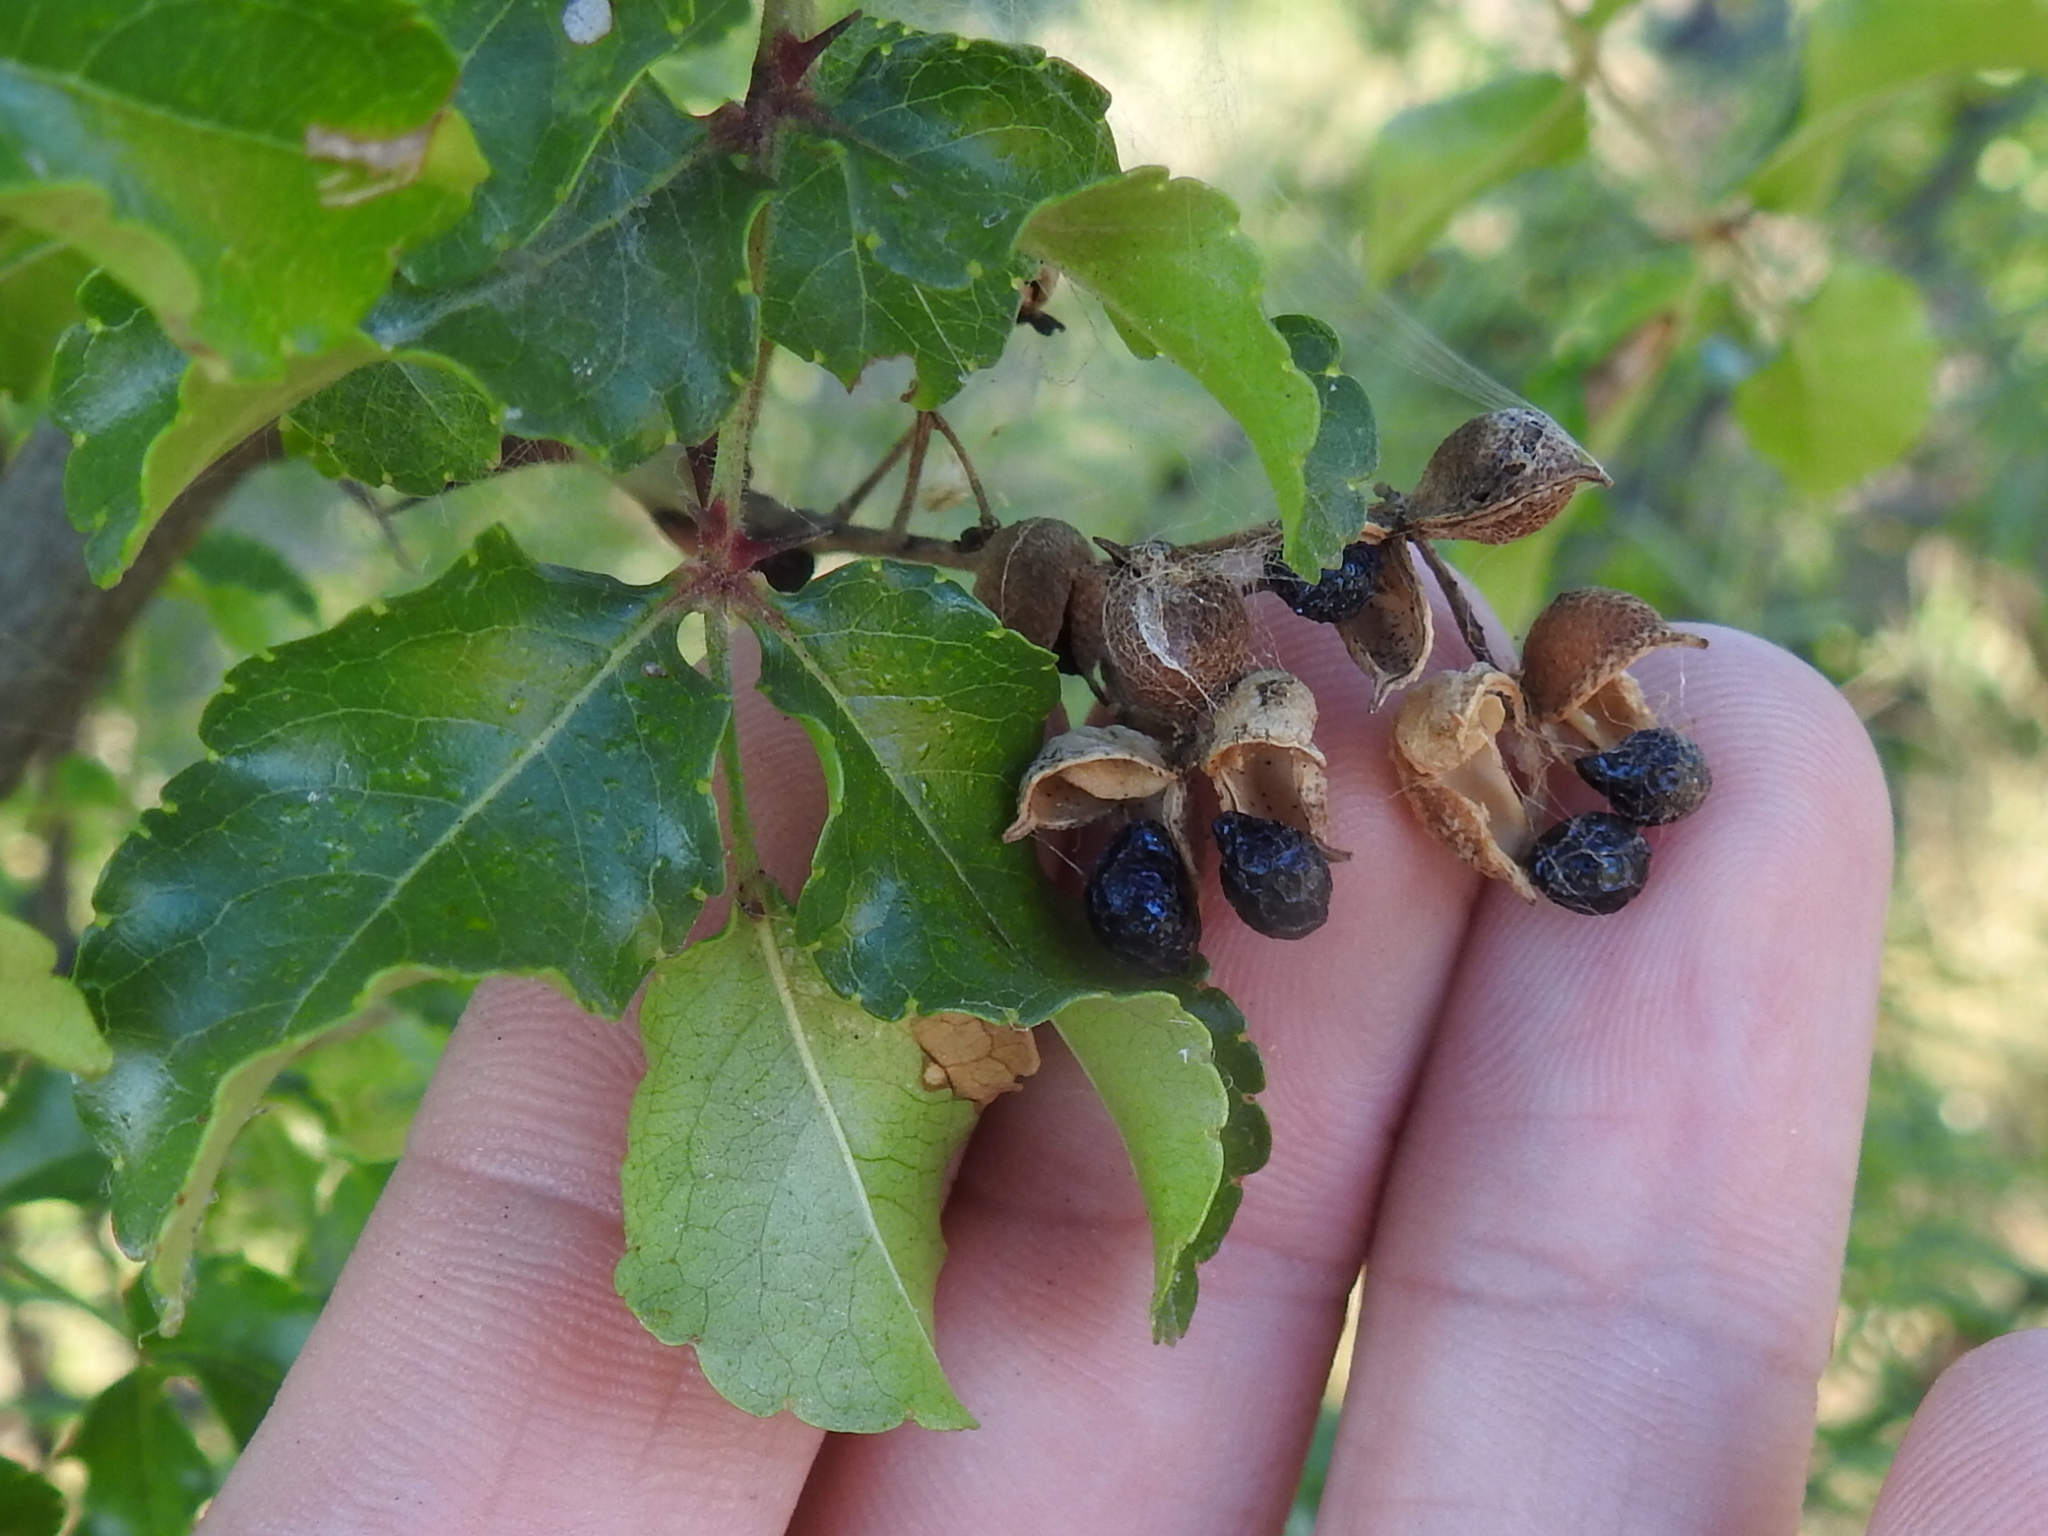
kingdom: Plantae
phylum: Tracheophyta
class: Magnoliopsida
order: Sapindales
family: Rutaceae
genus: Zanthoxylum
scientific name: Zanthoxylum clava-herculis
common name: Hercules'-club
